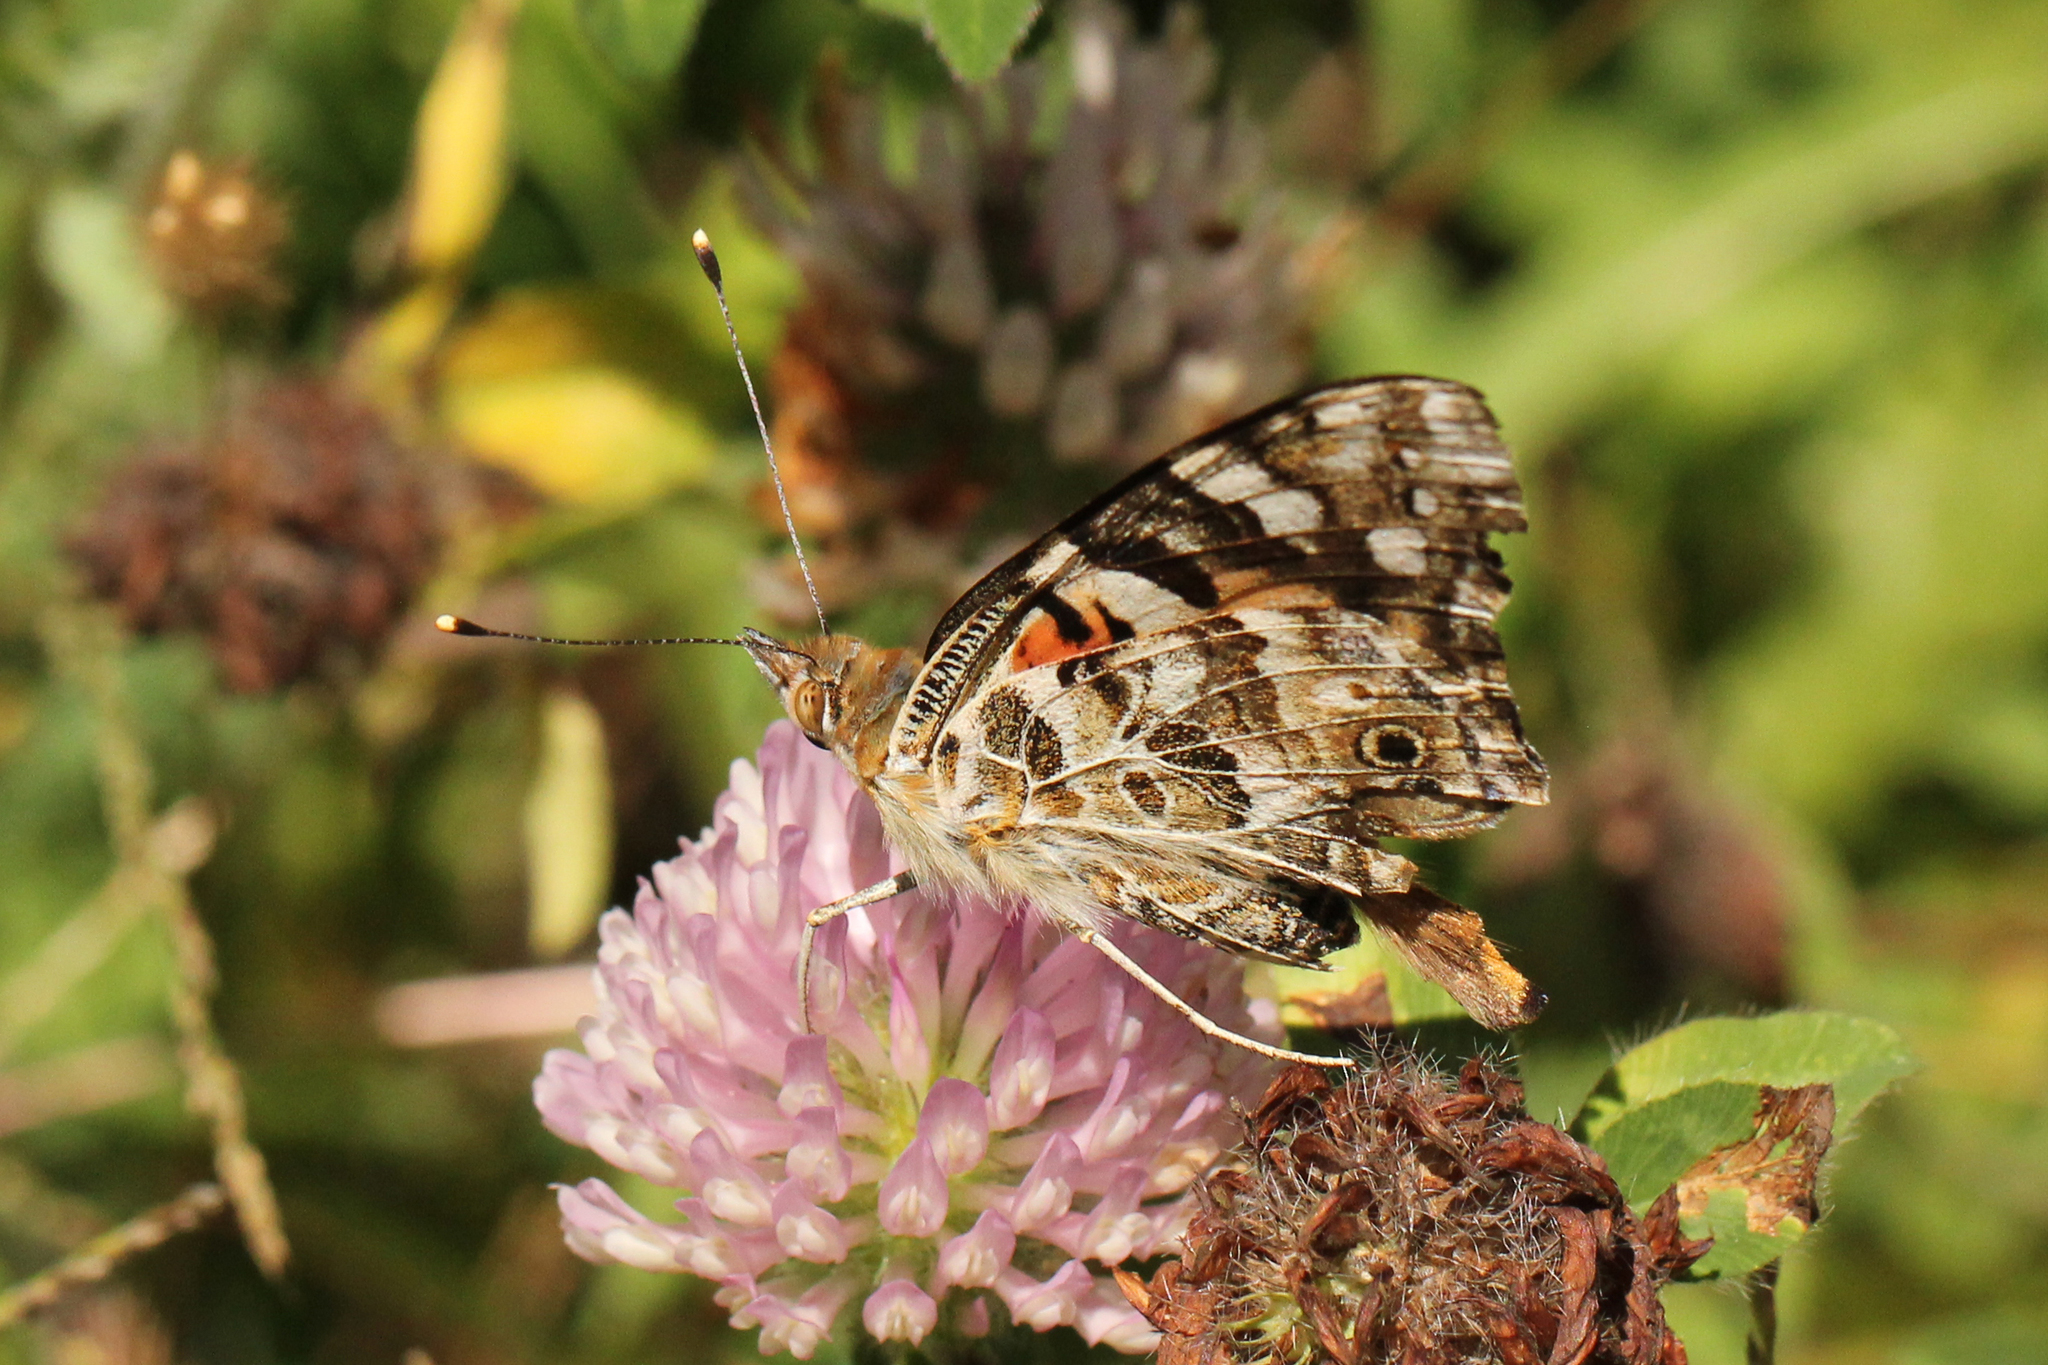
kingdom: Animalia
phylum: Arthropoda
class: Insecta
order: Lepidoptera
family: Nymphalidae
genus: Vanessa
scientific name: Vanessa cardui
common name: Painted lady
